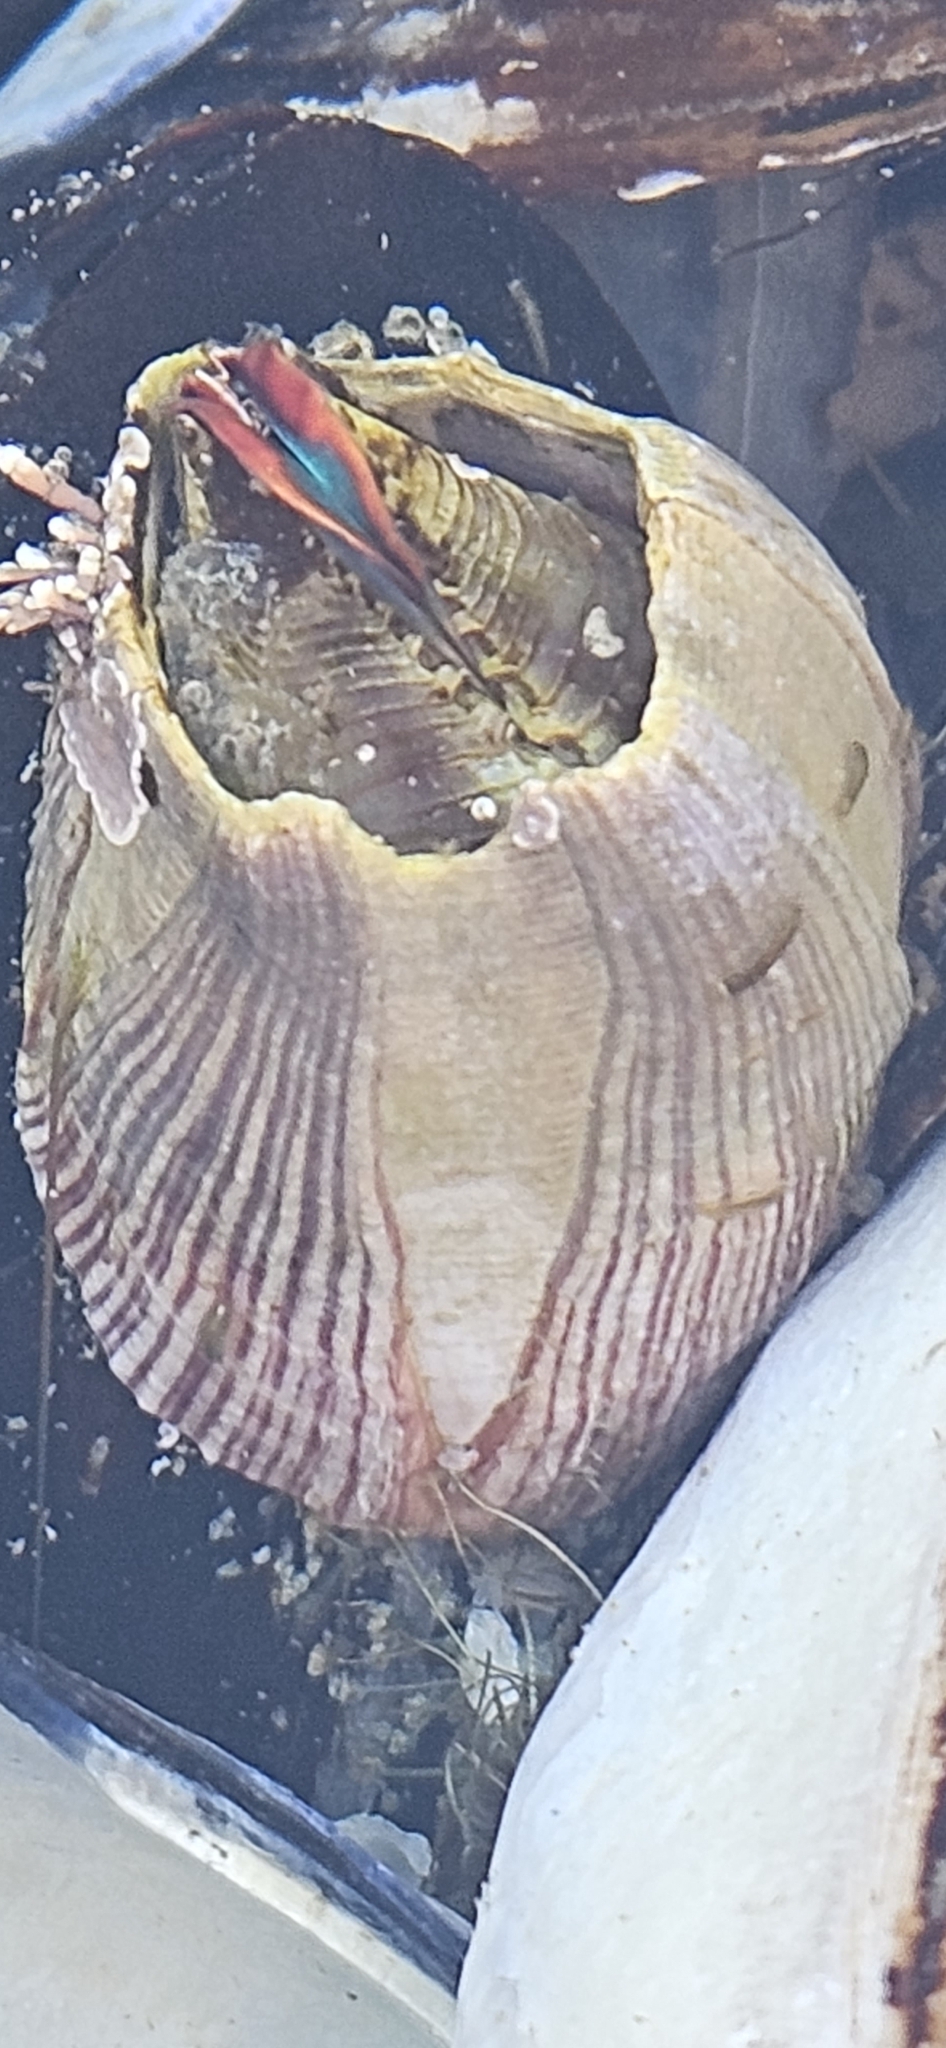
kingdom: Animalia
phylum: Arthropoda
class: Maxillopoda
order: Sessilia
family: Balanidae
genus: Megabalanus
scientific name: Megabalanus californicus
